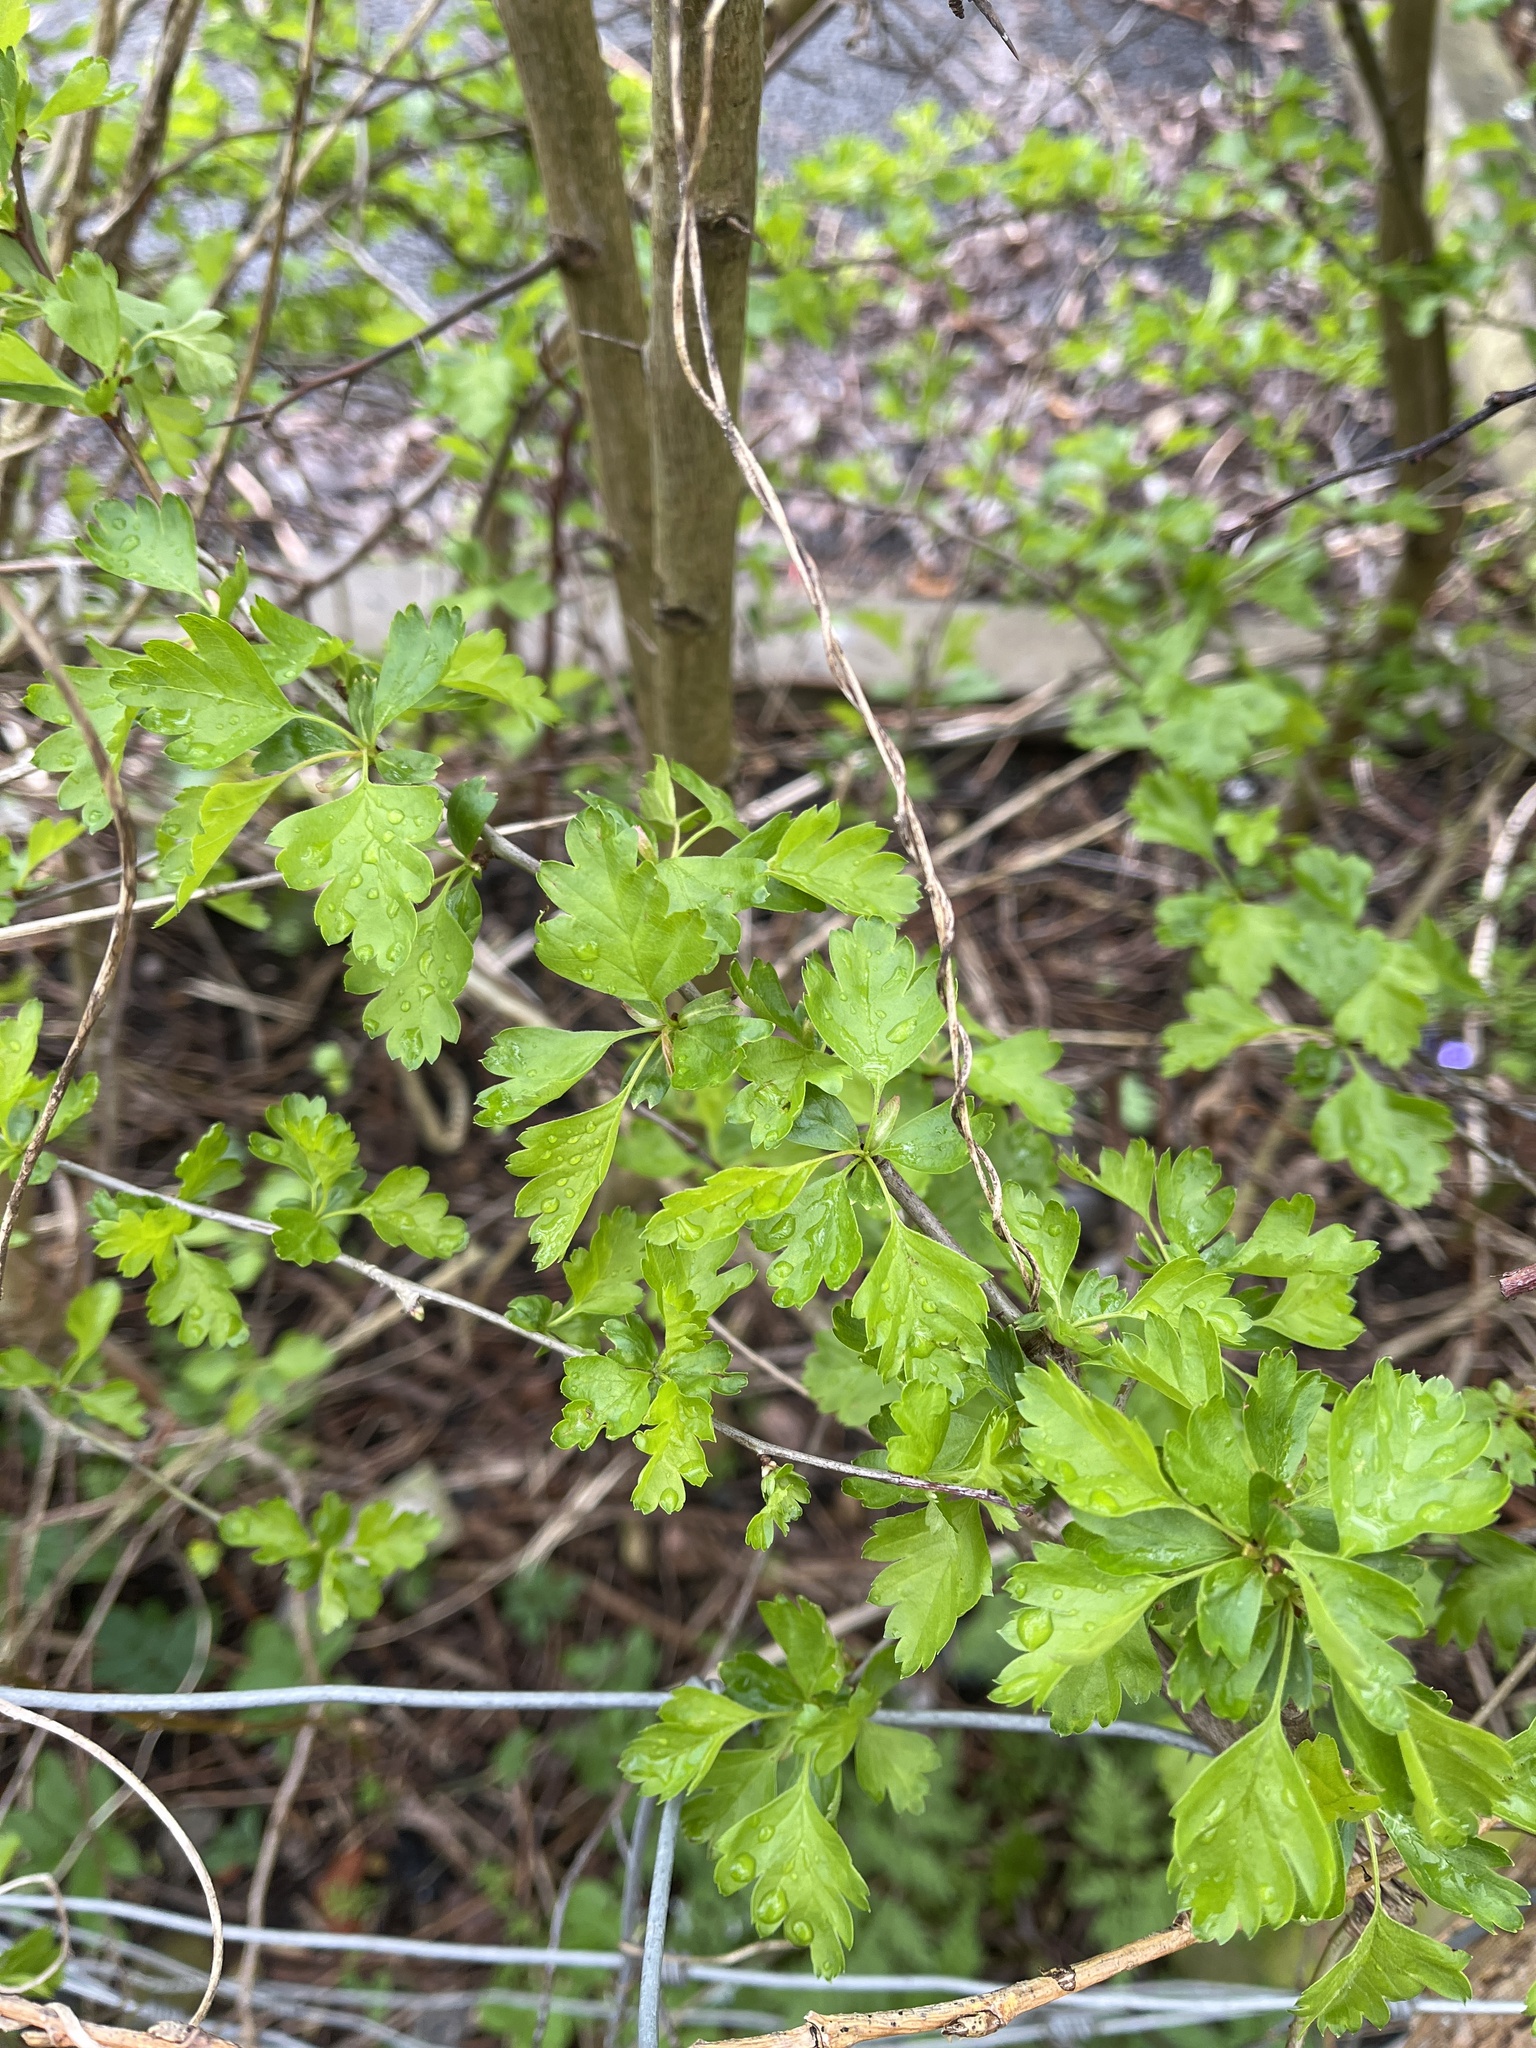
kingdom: Plantae
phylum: Tracheophyta
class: Magnoliopsida
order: Rosales
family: Rosaceae
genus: Crataegus
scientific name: Crataegus monogyna
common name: Hawthorn
